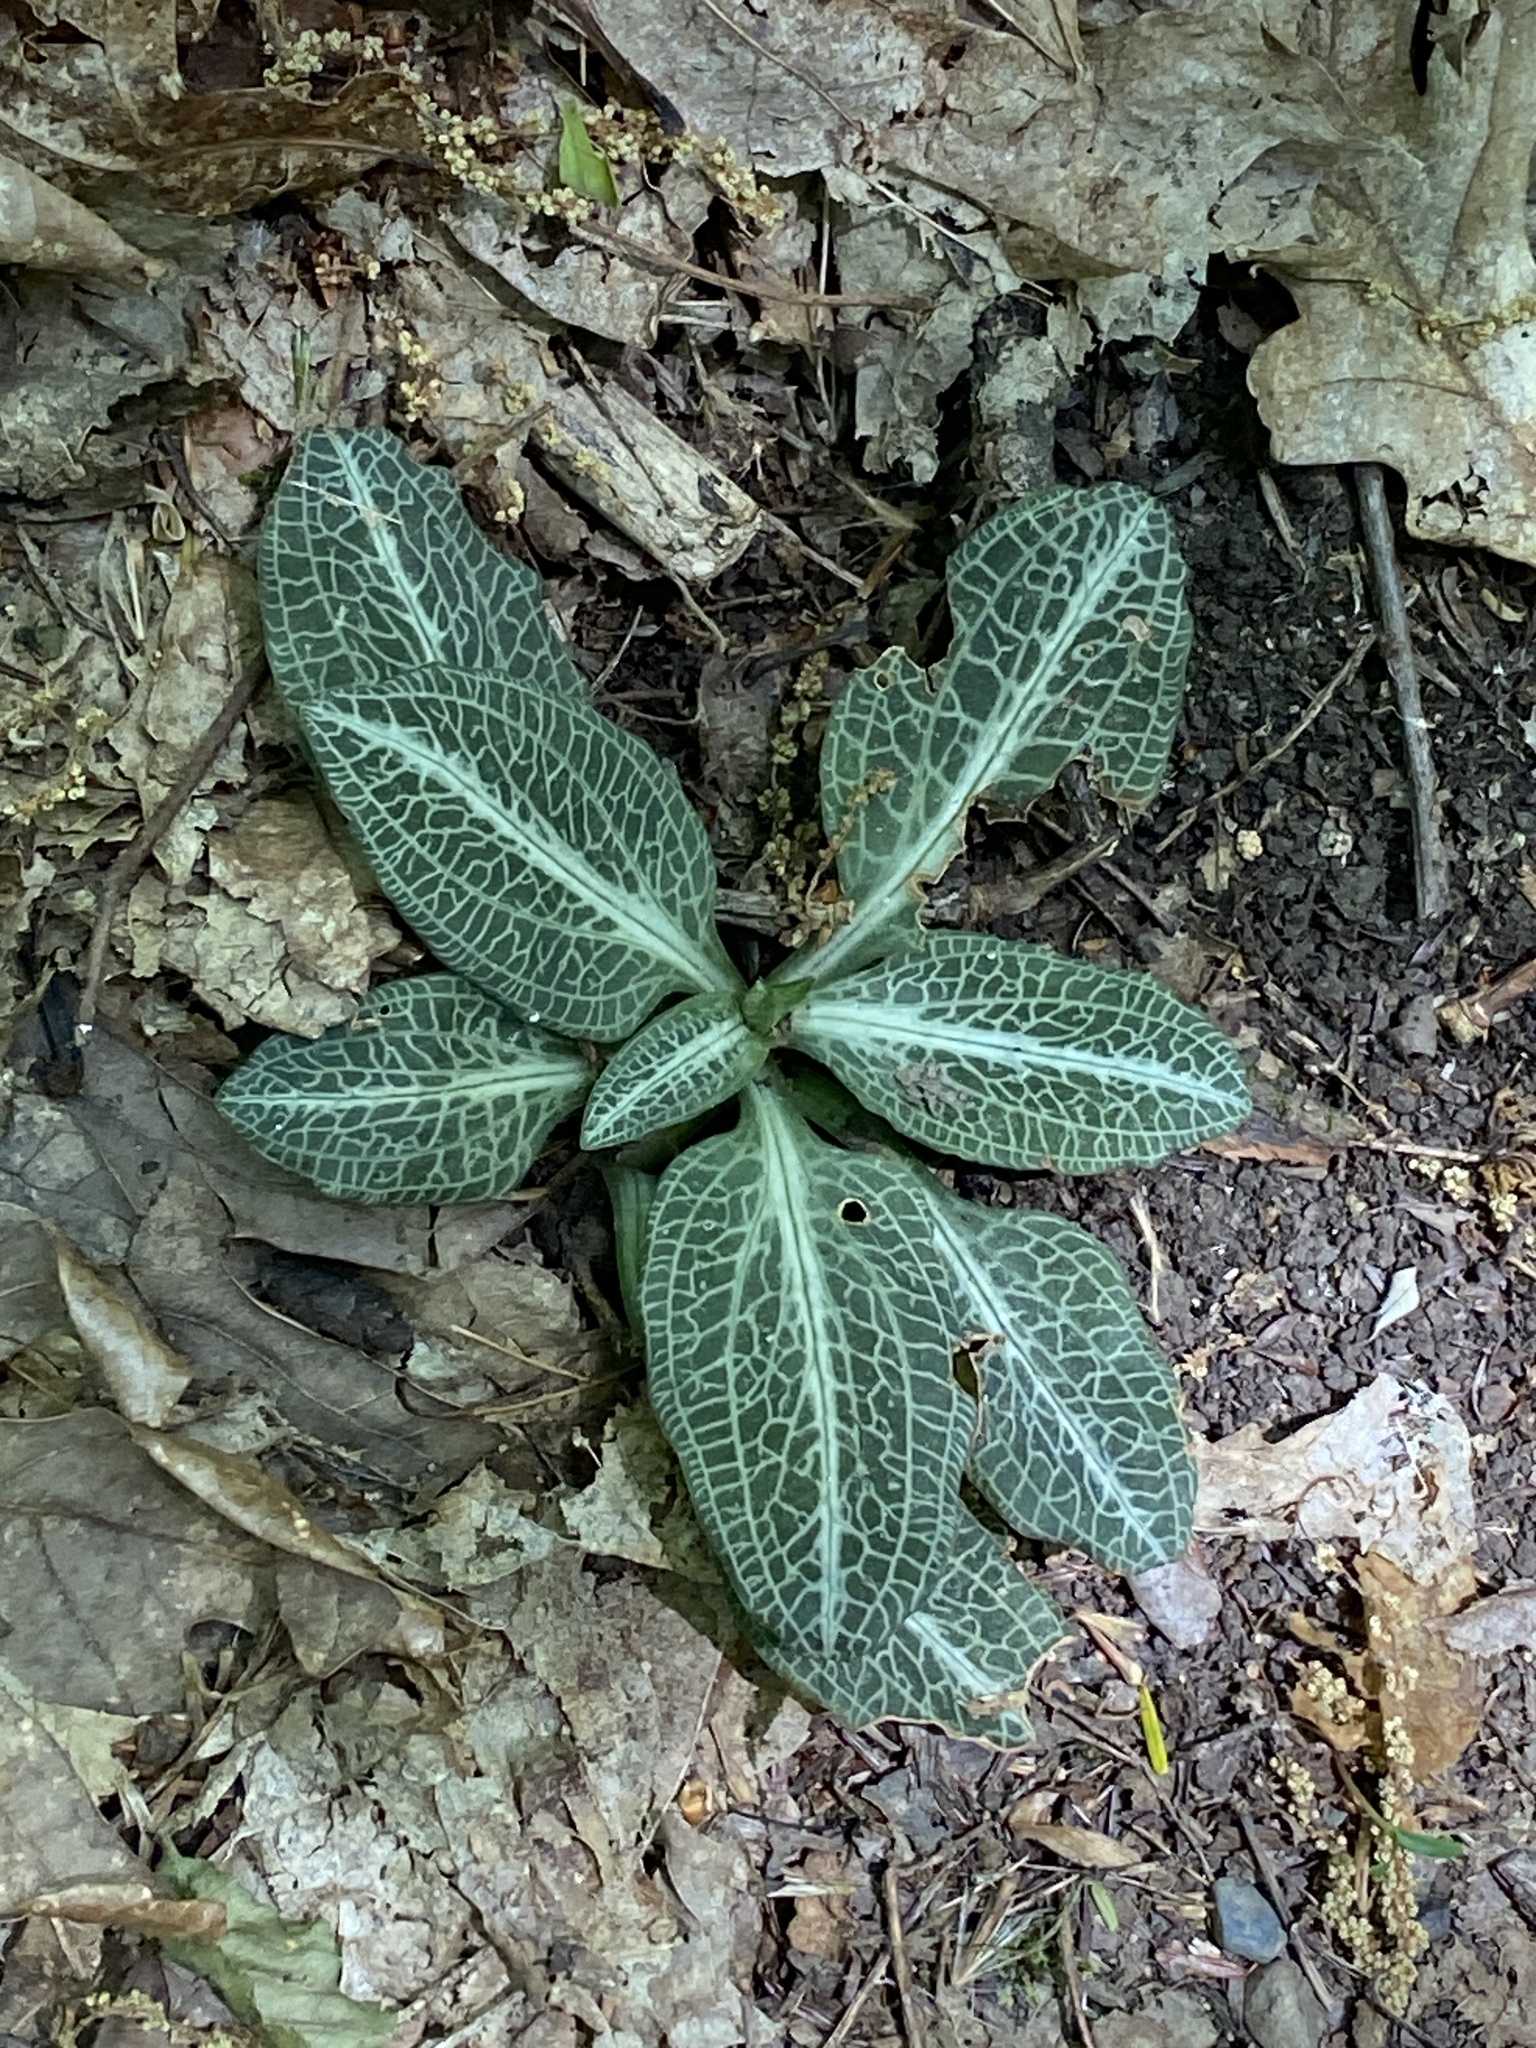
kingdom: Plantae
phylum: Tracheophyta
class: Liliopsida
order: Asparagales
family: Orchidaceae
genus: Goodyera
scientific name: Goodyera pubescens
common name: Downy rattlesnake-plantain
